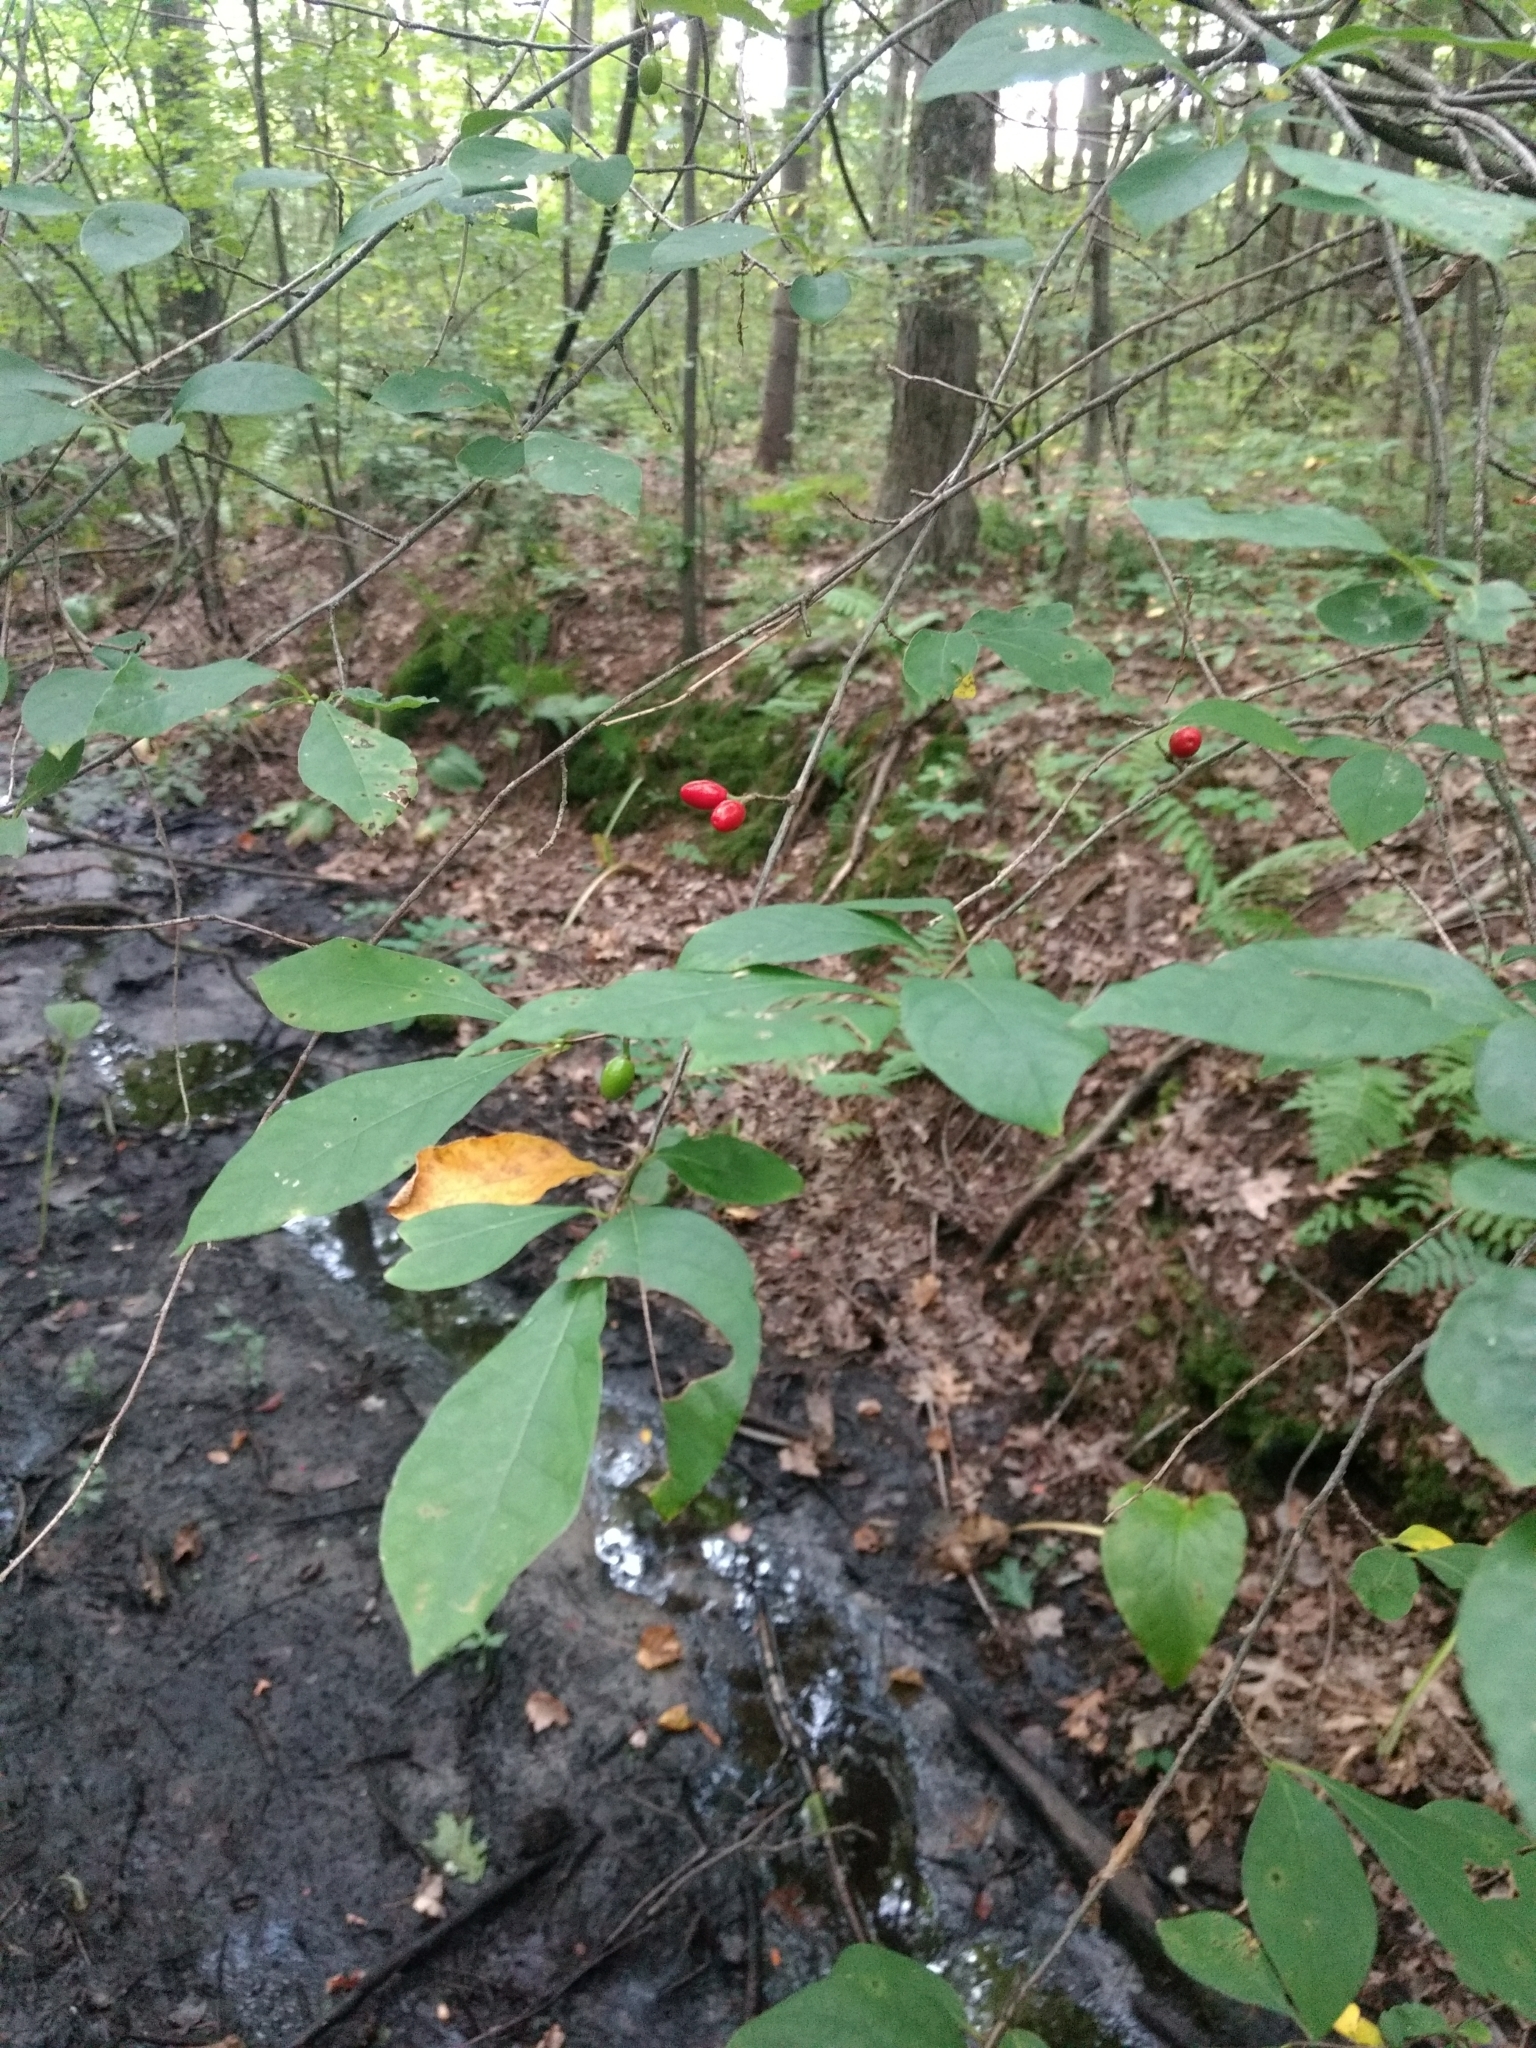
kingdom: Plantae
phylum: Tracheophyta
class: Magnoliopsida
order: Laurales
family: Lauraceae
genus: Lindera
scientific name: Lindera benzoin
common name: Spicebush
